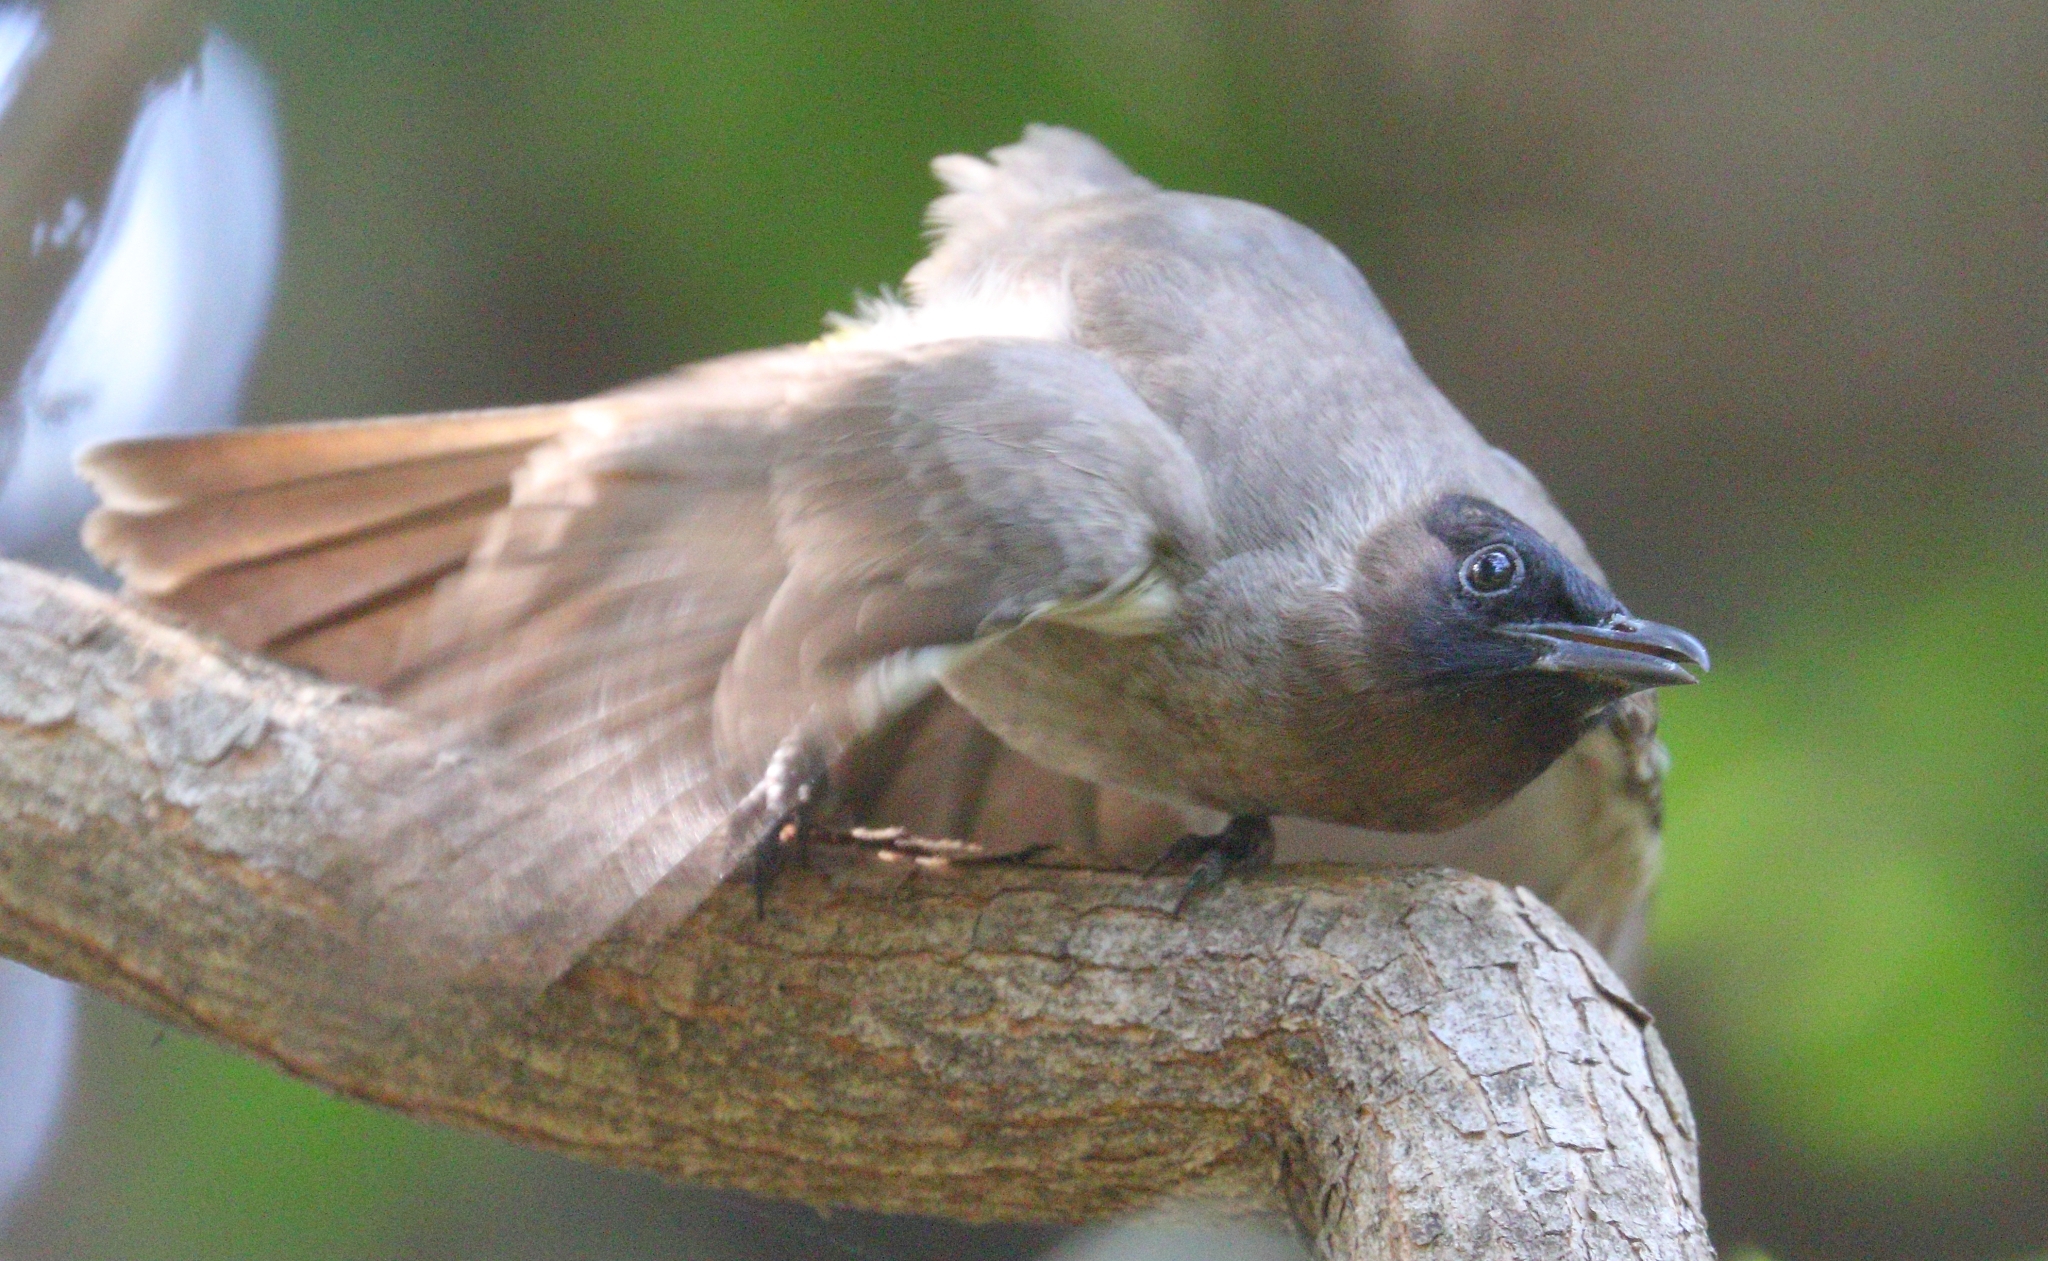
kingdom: Animalia
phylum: Chordata
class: Aves
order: Passeriformes
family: Pycnonotidae
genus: Pycnonotus
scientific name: Pycnonotus barbatus
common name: Common bulbul
